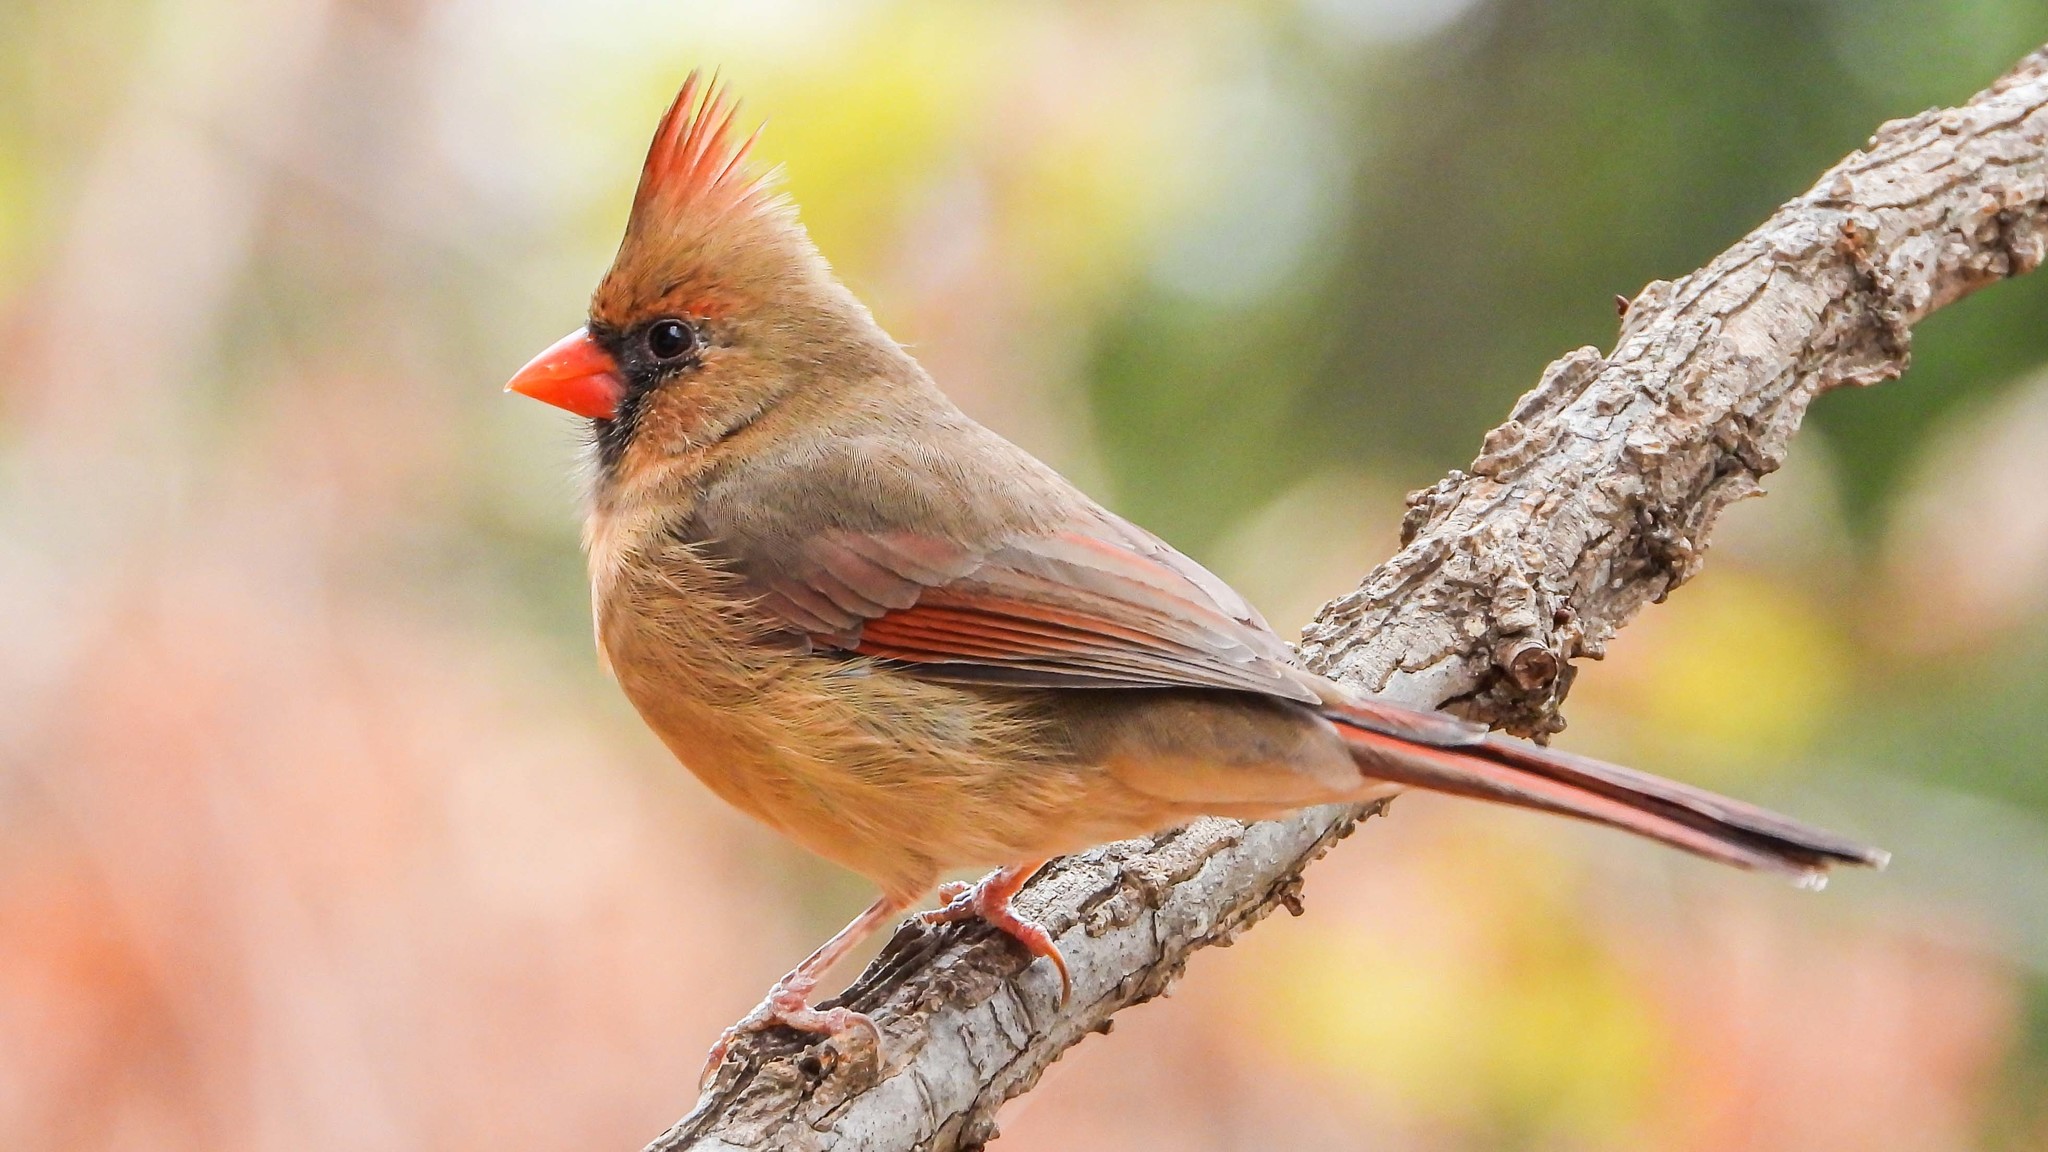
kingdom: Animalia
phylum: Chordata
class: Aves
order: Passeriformes
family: Cardinalidae
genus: Cardinalis
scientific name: Cardinalis cardinalis
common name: Northern cardinal
